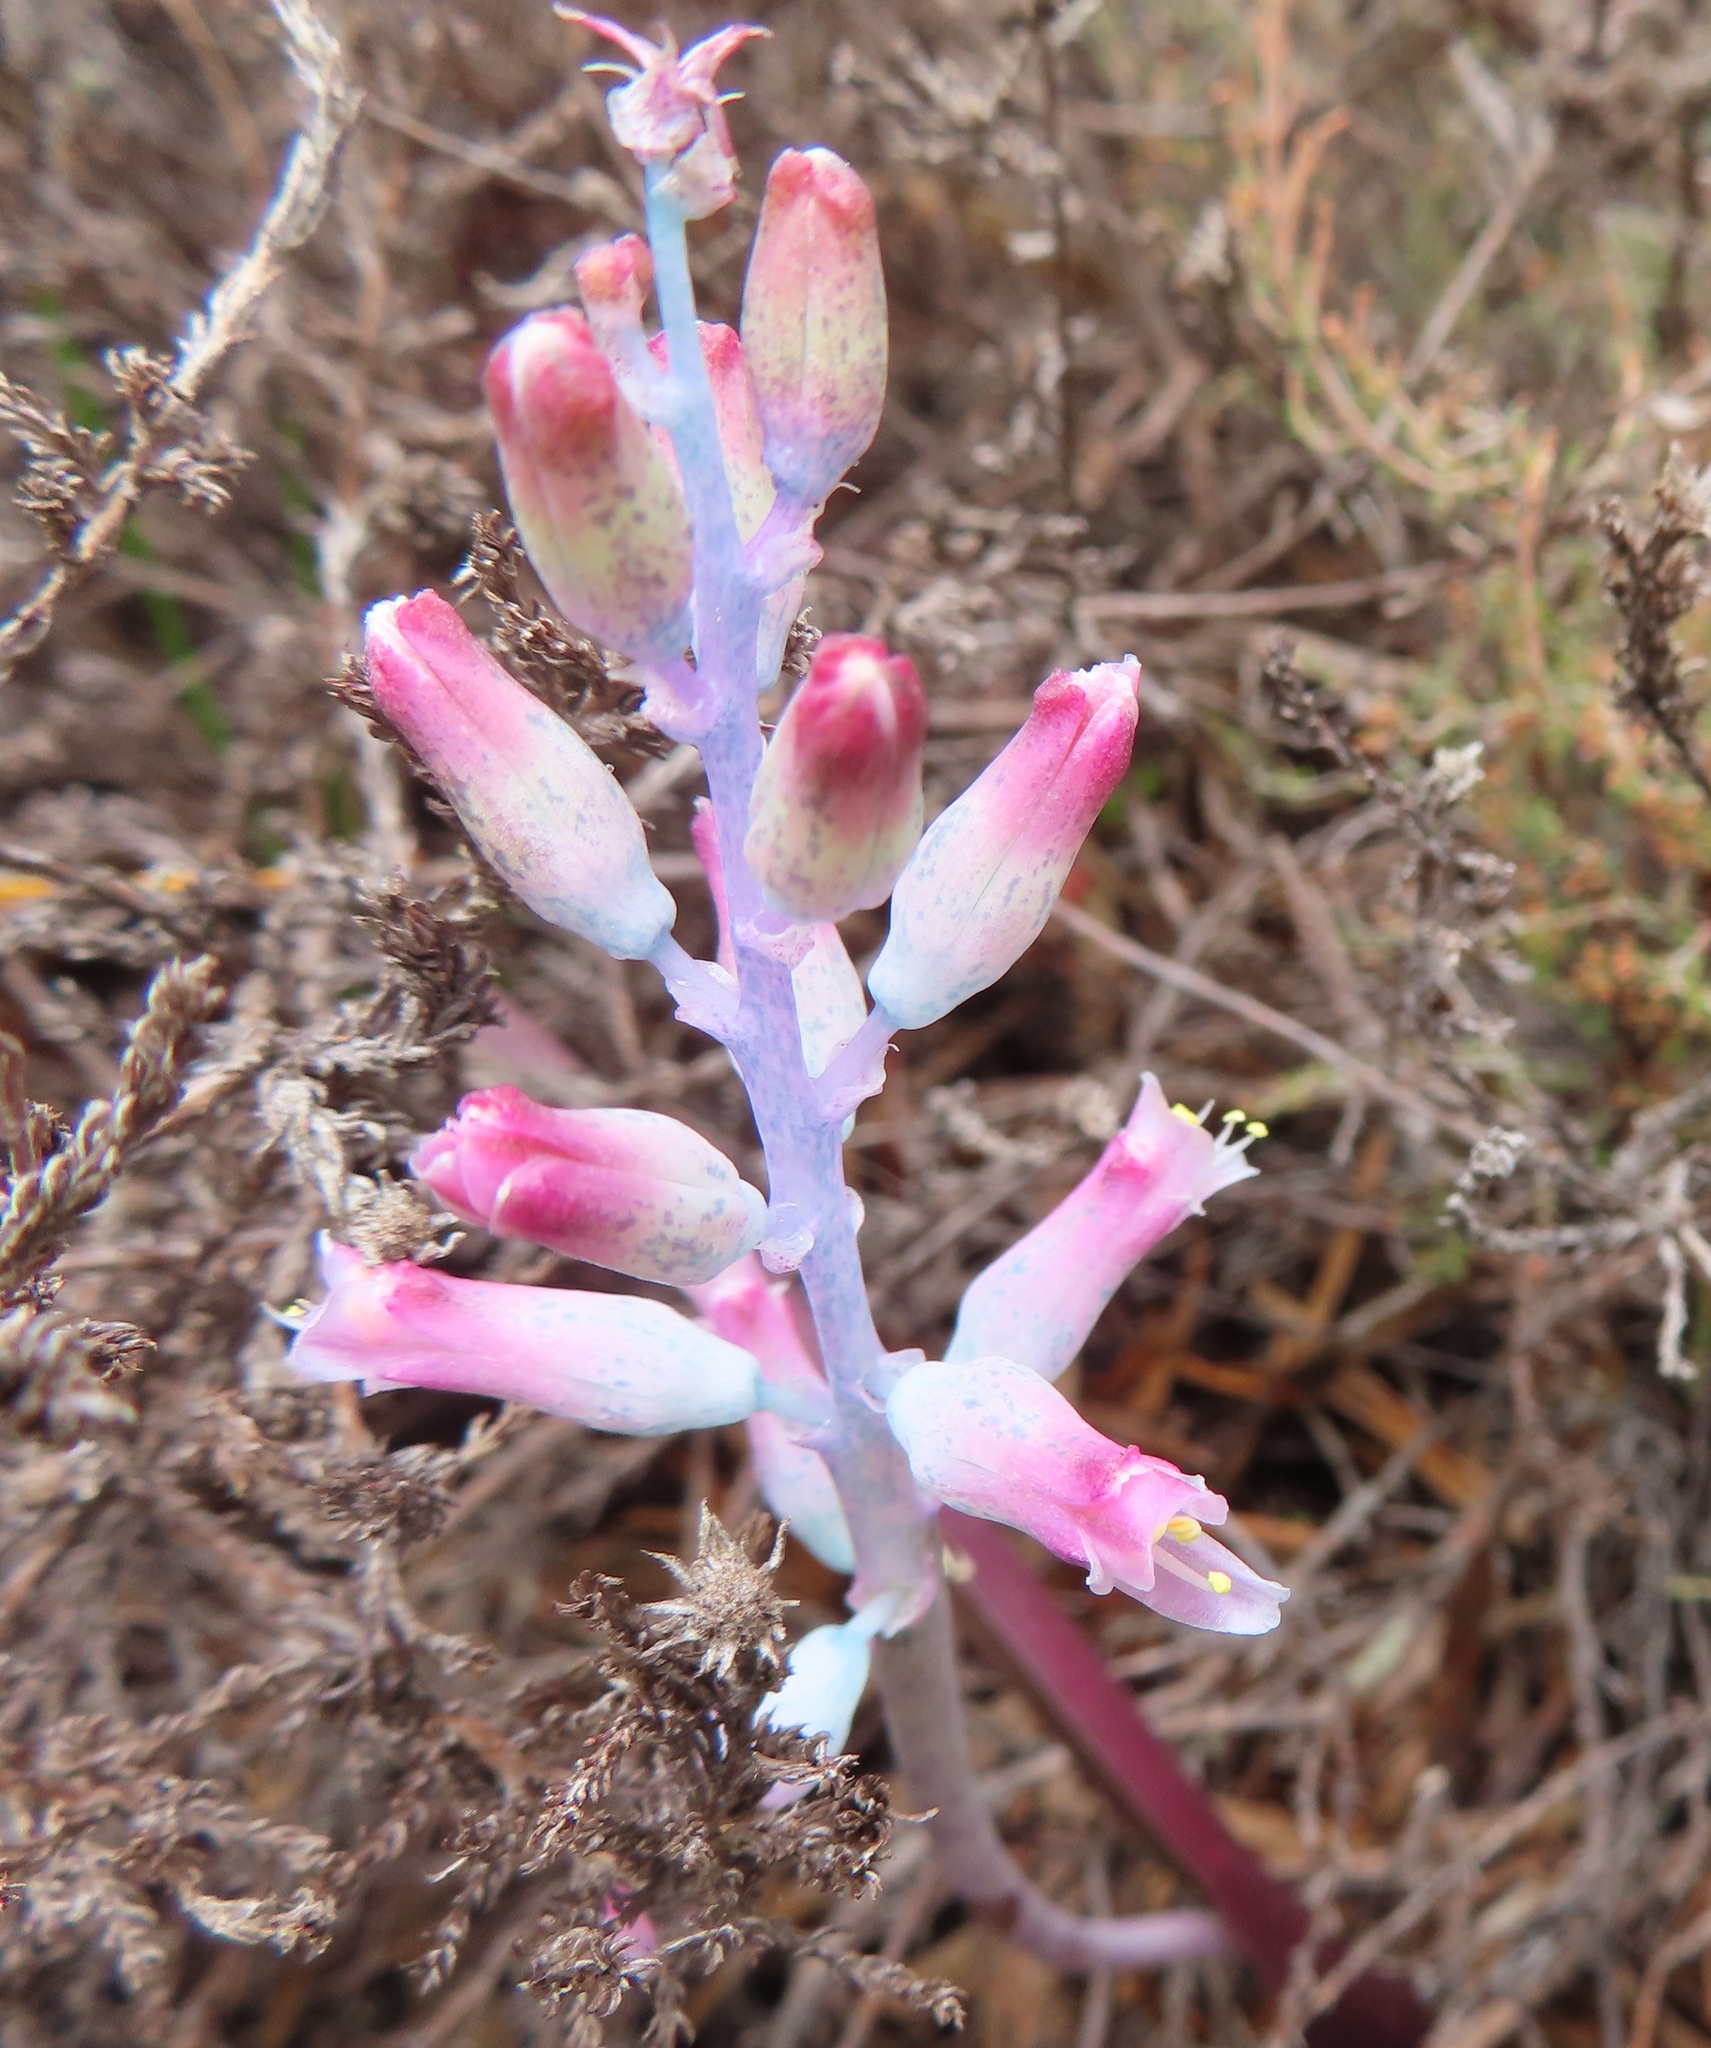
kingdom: Plantae
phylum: Tracheophyta
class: Liliopsida
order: Asparagales
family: Asparagaceae
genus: Lachenalia
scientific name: Lachenalia rosea
